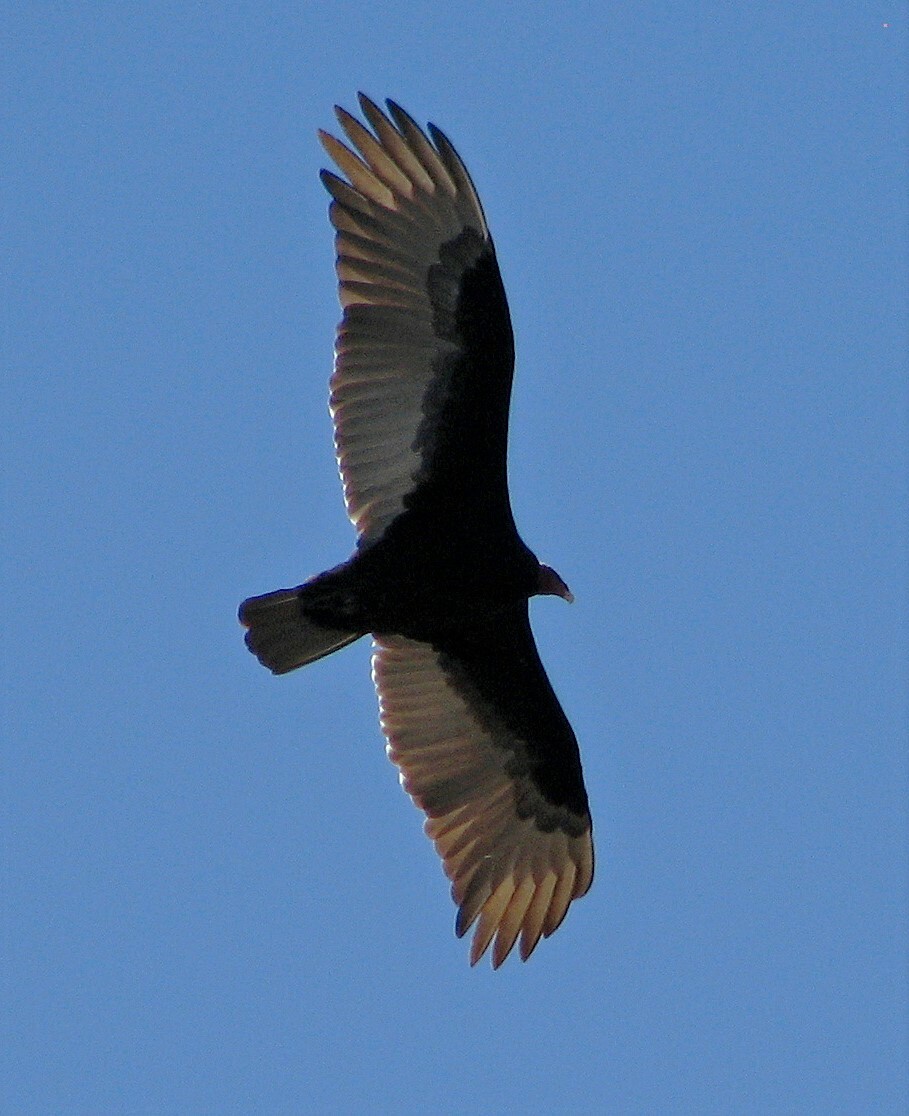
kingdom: Animalia
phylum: Chordata
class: Aves
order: Accipitriformes
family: Cathartidae
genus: Cathartes
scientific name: Cathartes aura
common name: Turkey vulture
